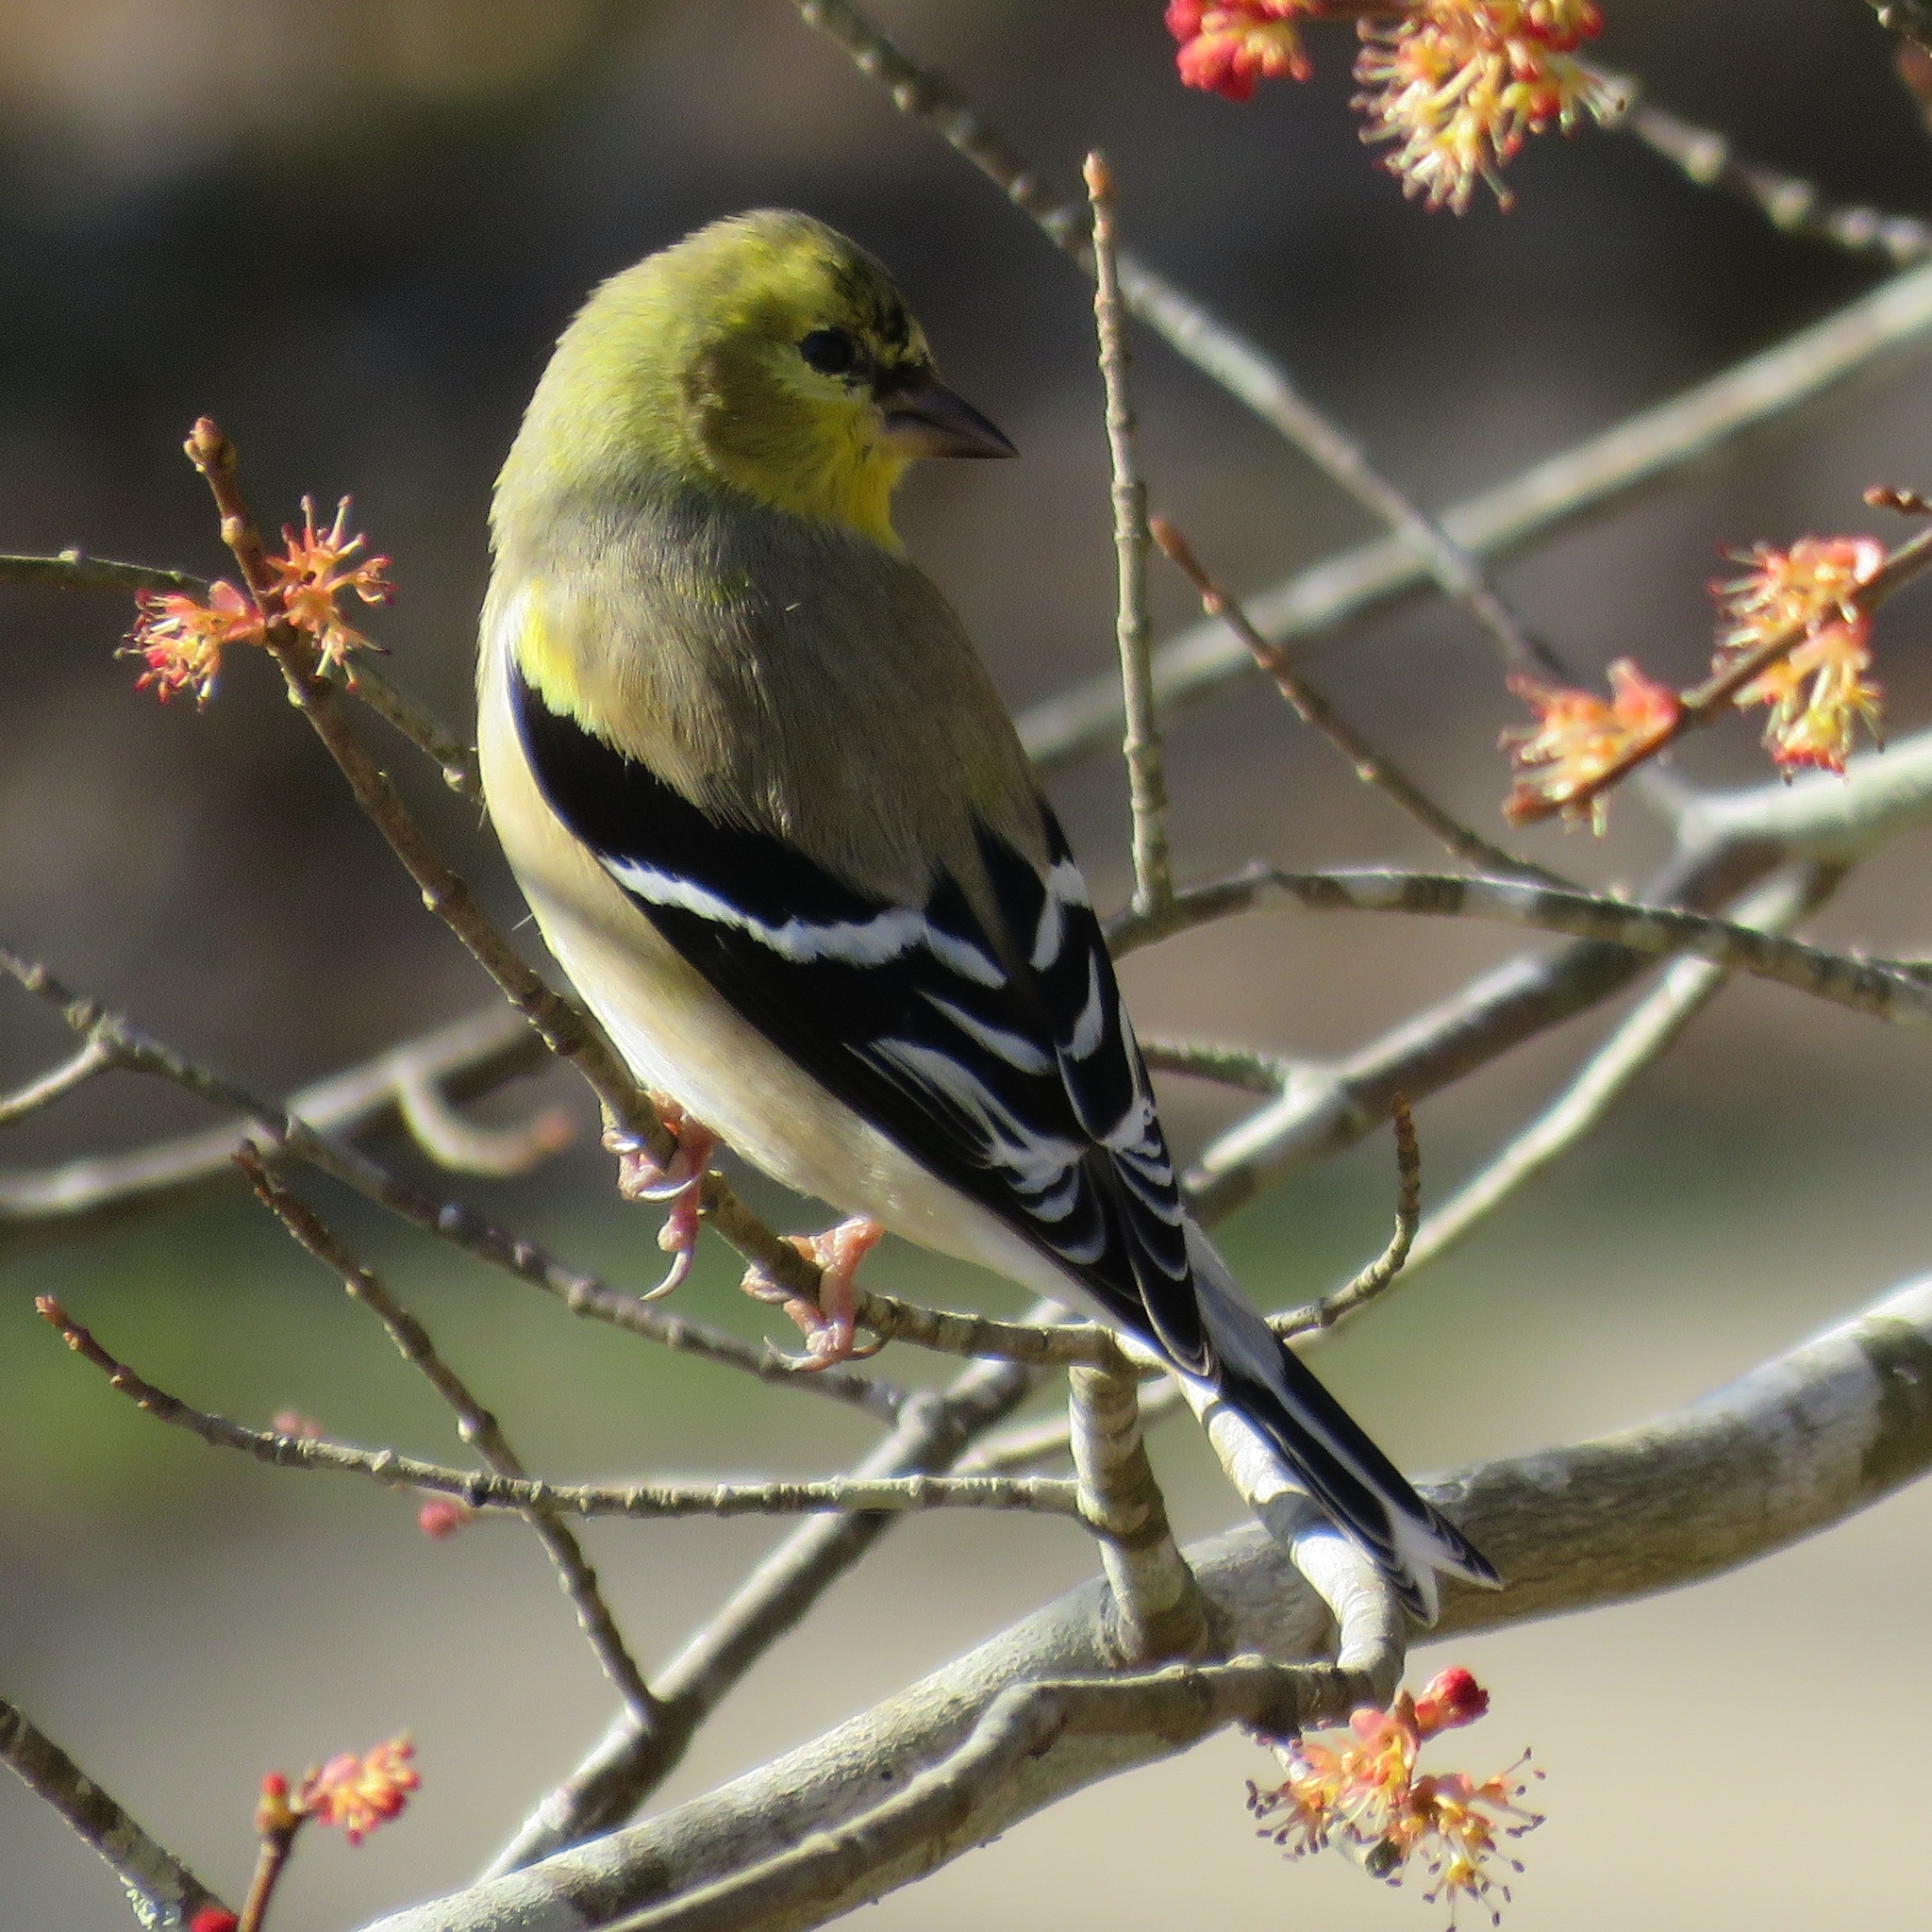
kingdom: Animalia
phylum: Chordata
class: Aves
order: Passeriformes
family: Fringillidae
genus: Spinus
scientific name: Spinus tristis
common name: American goldfinch
